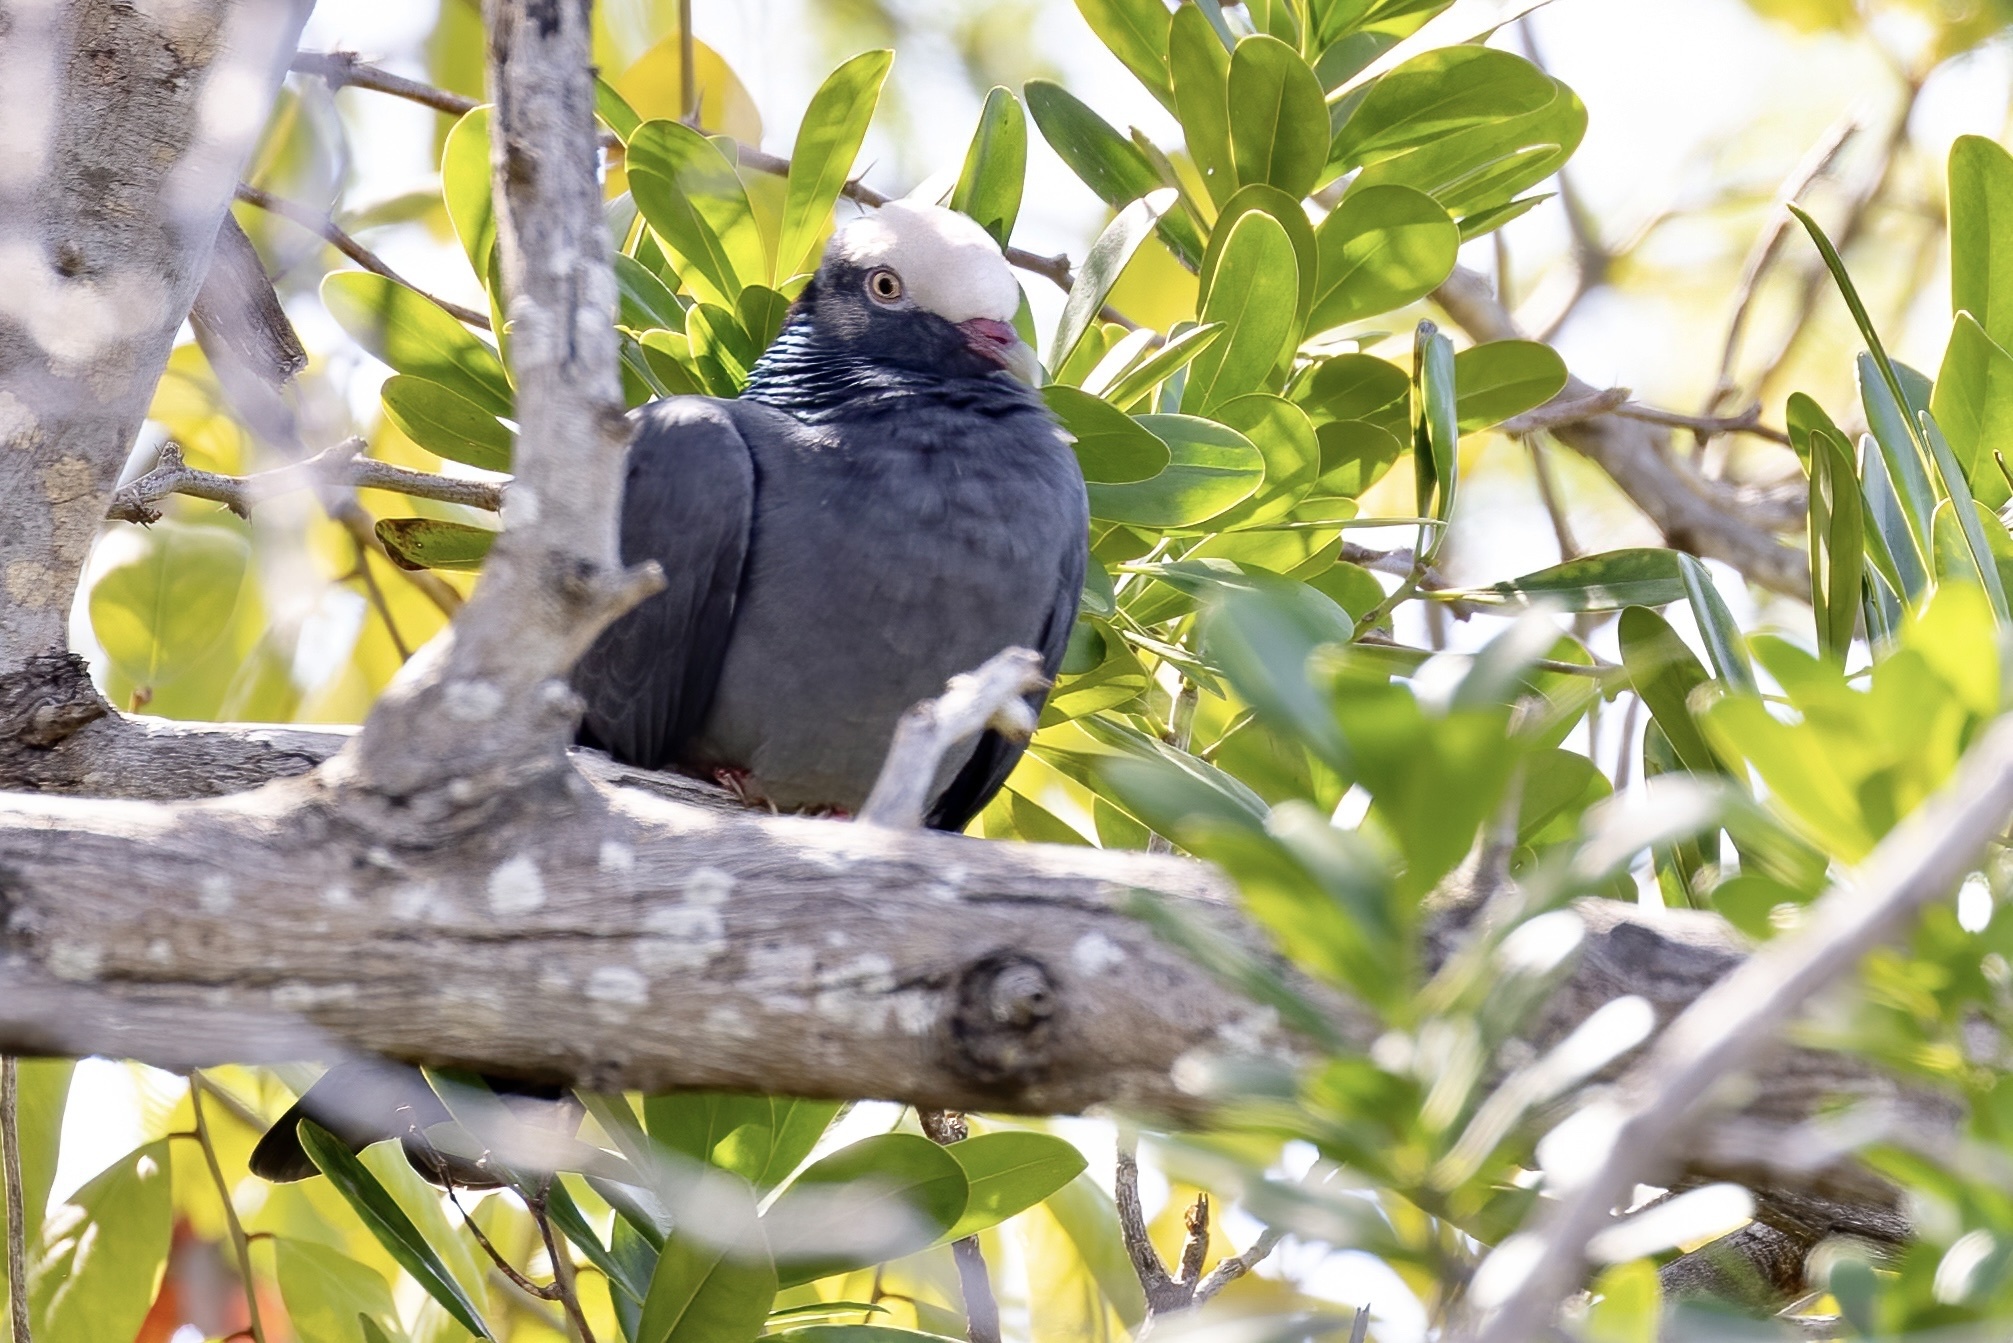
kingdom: Animalia
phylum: Chordata
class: Aves
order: Columbiformes
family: Columbidae
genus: Patagioenas
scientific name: Patagioenas leucocephala
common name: White-crowned pigeon
